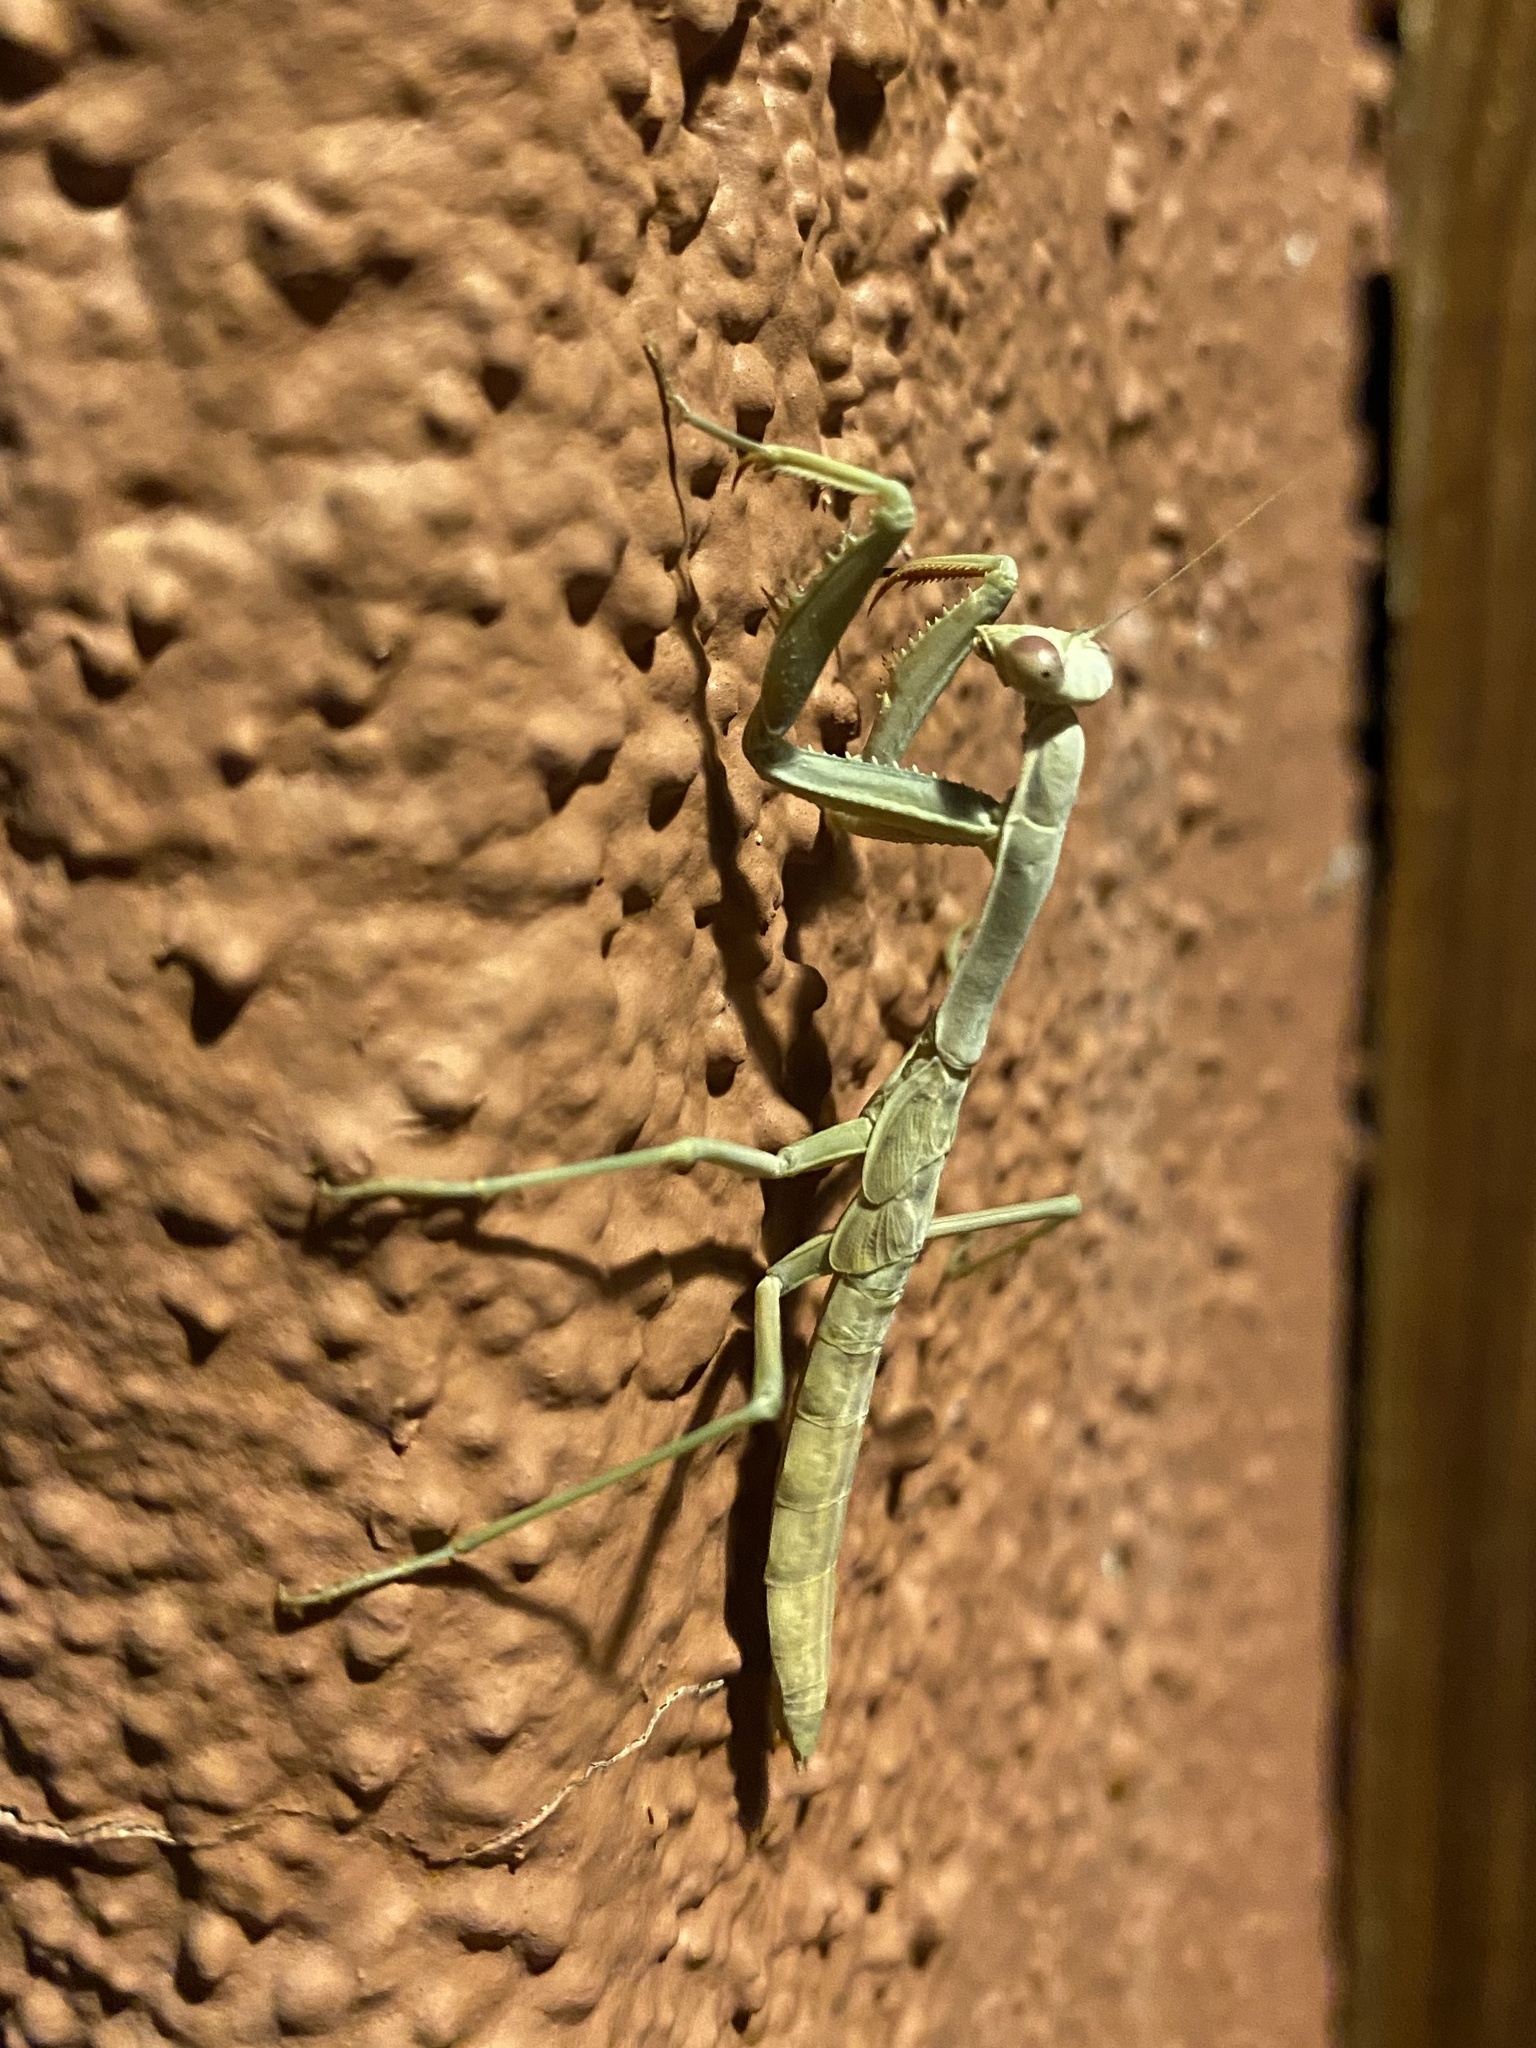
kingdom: Animalia
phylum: Arthropoda
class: Insecta
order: Mantodea
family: Eremiaphilidae
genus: Iris
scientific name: Iris oratoria
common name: Mediterranean mantis
